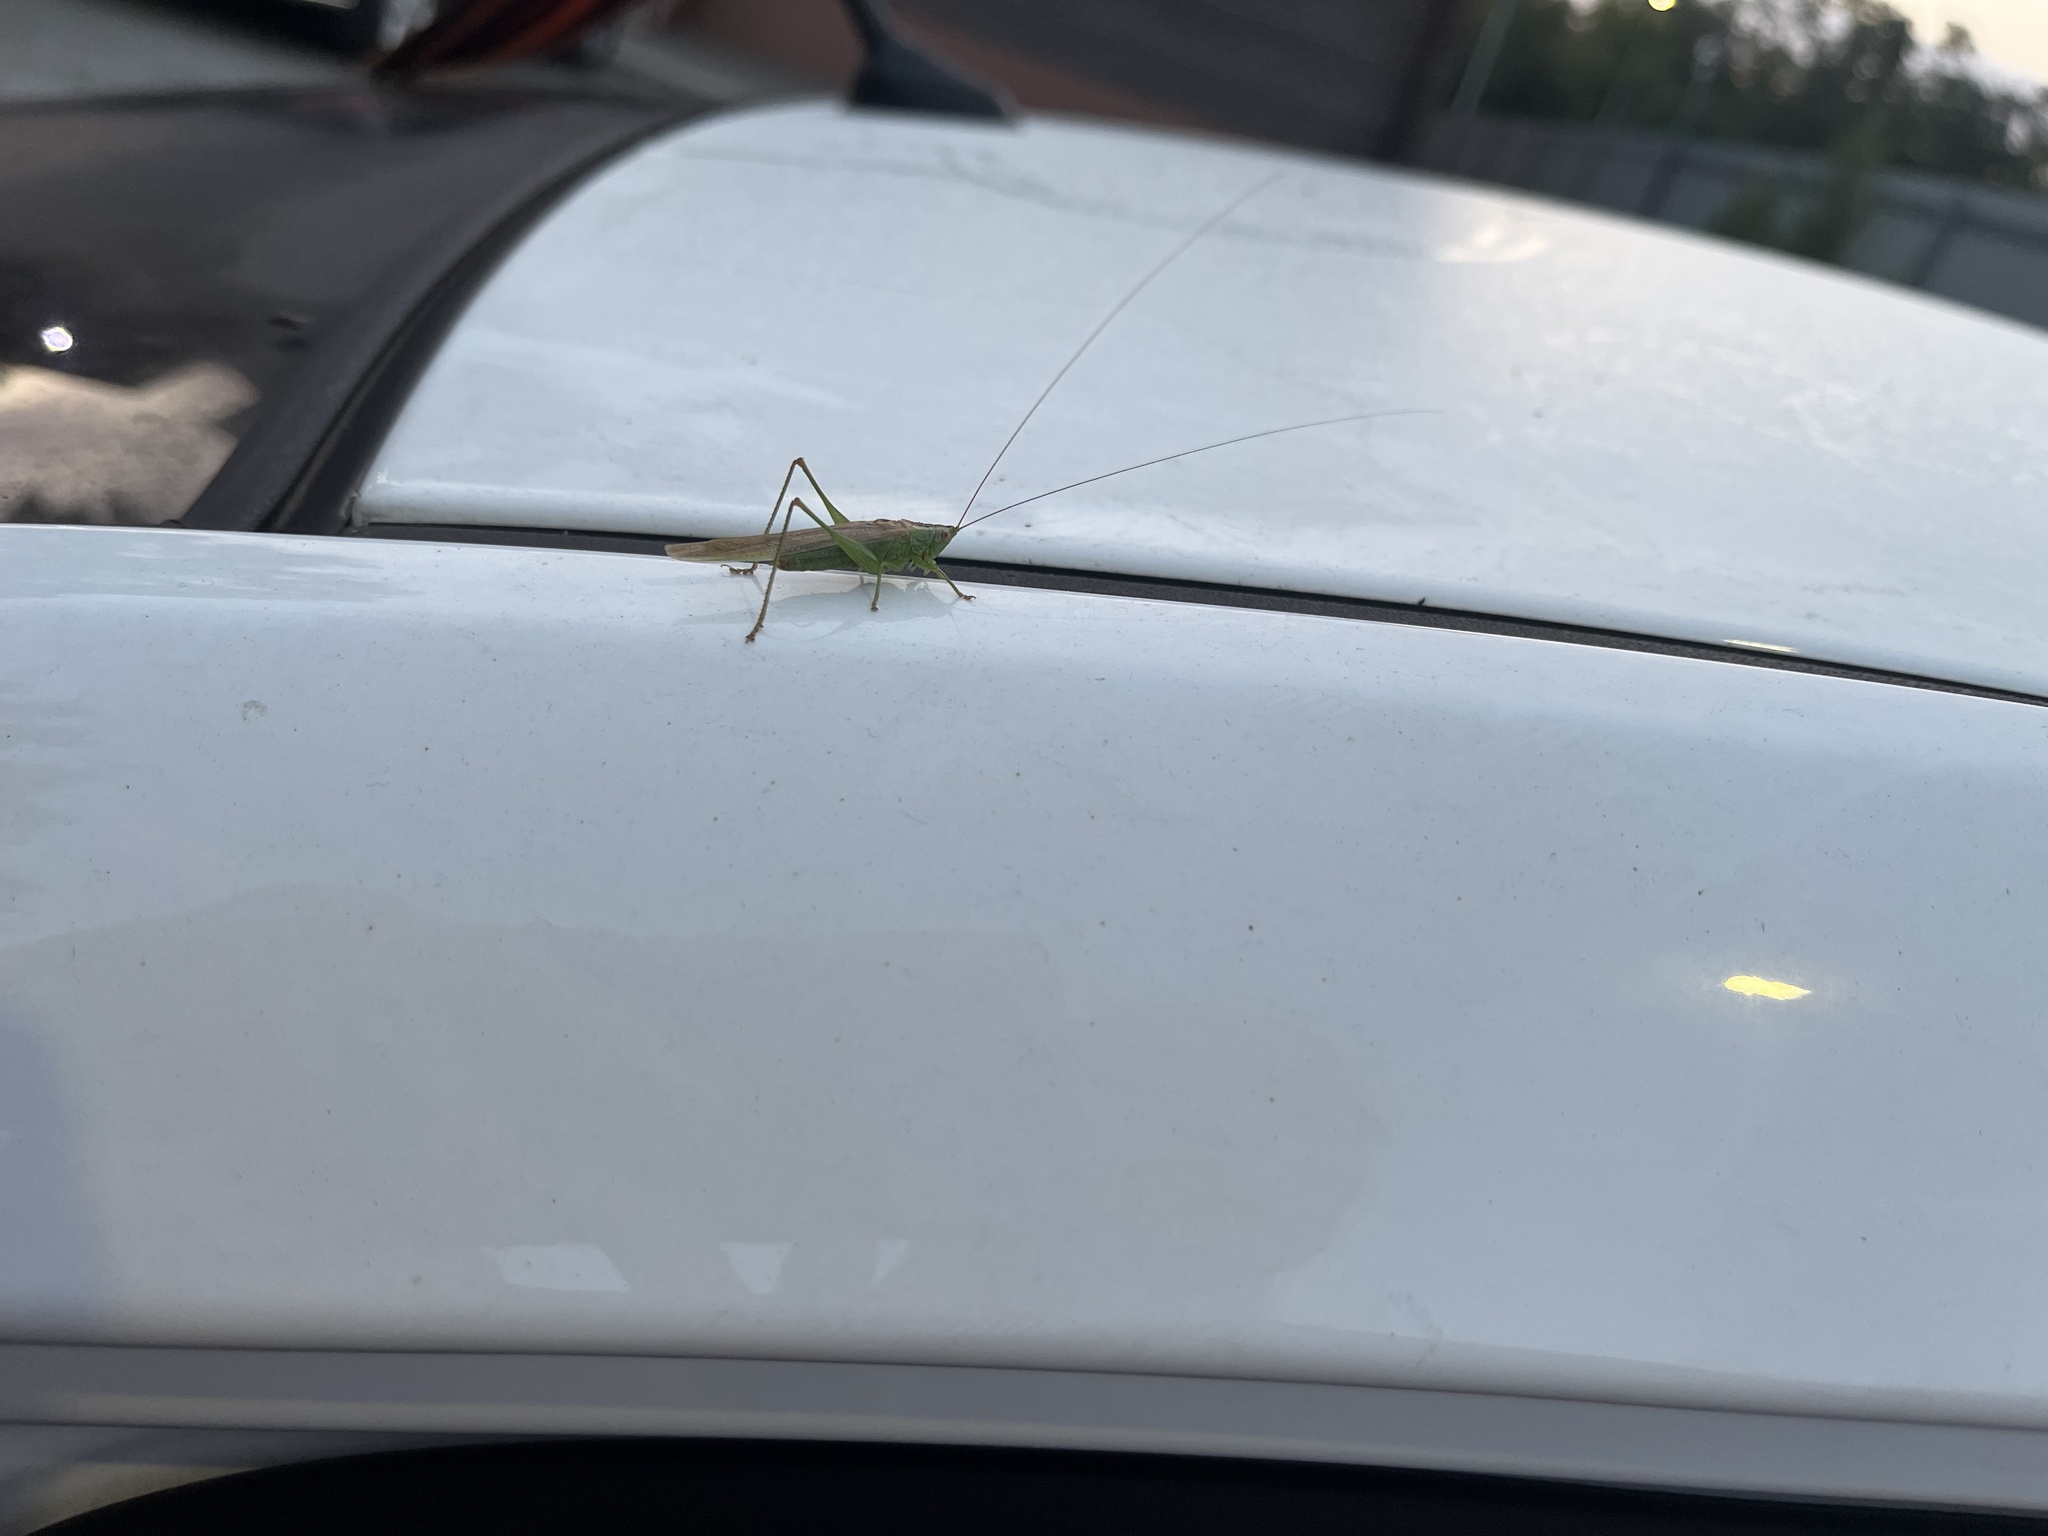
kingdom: Animalia
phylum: Arthropoda
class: Insecta
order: Orthoptera
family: Tettigoniidae
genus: Conocephalus
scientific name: Conocephalus fuscus
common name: Long-winged conehead
